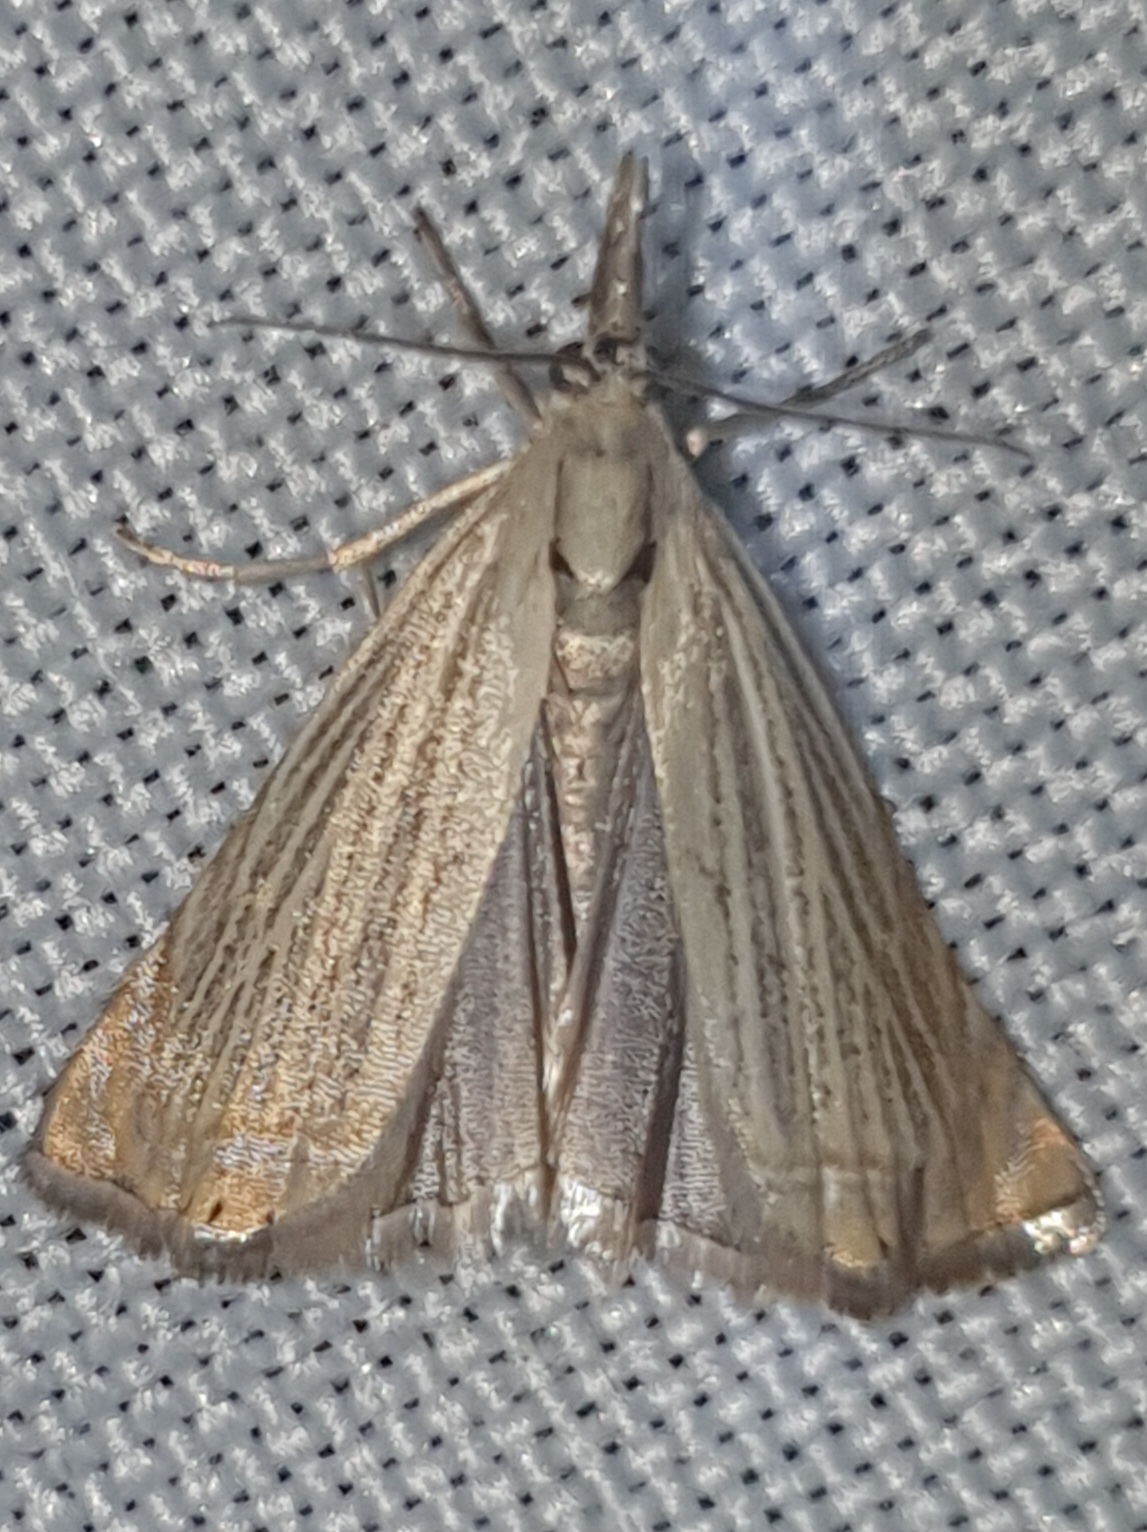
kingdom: Animalia
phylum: Arthropoda
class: Insecta
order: Lepidoptera
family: Crambidae
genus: Chrysoteuchia
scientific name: Chrysoteuchia culmella
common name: Garden grass-veneer
